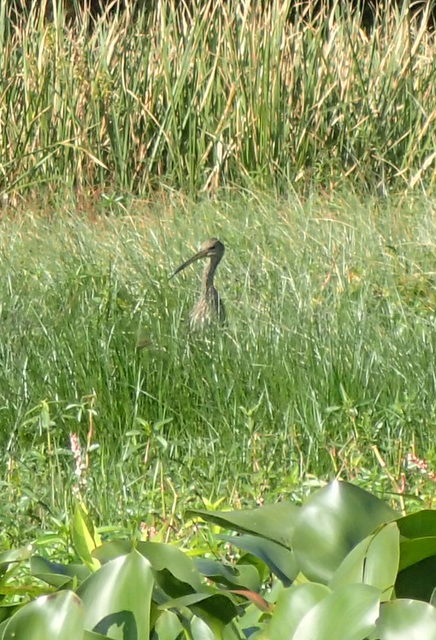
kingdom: Animalia
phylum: Chordata
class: Aves
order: Gruiformes
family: Aramidae
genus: Aramus
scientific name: Aramus guarauna
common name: Limpkin
